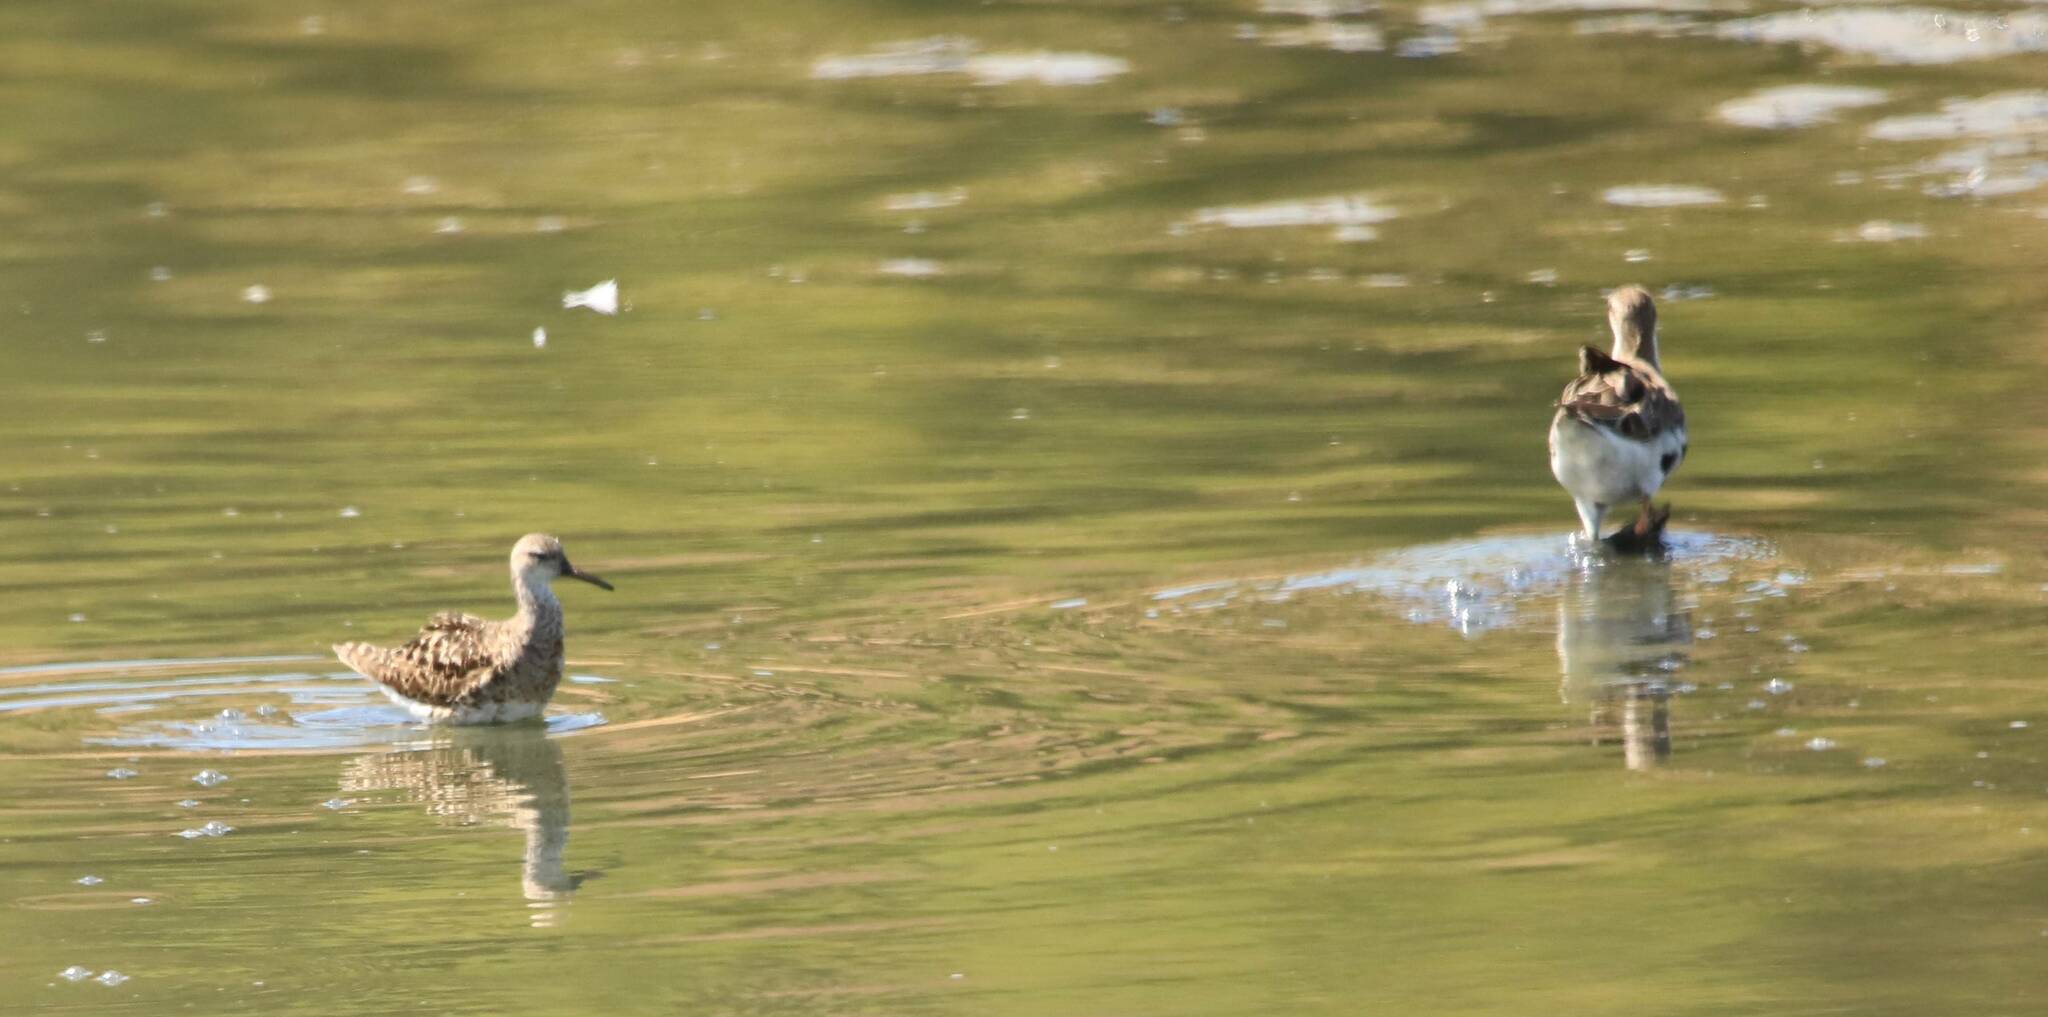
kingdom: Animalia
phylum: Chordata
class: Aves
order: Charadriiformes
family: Scolopacidae
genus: Calidris
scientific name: Calidris pugnax
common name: Ruff
